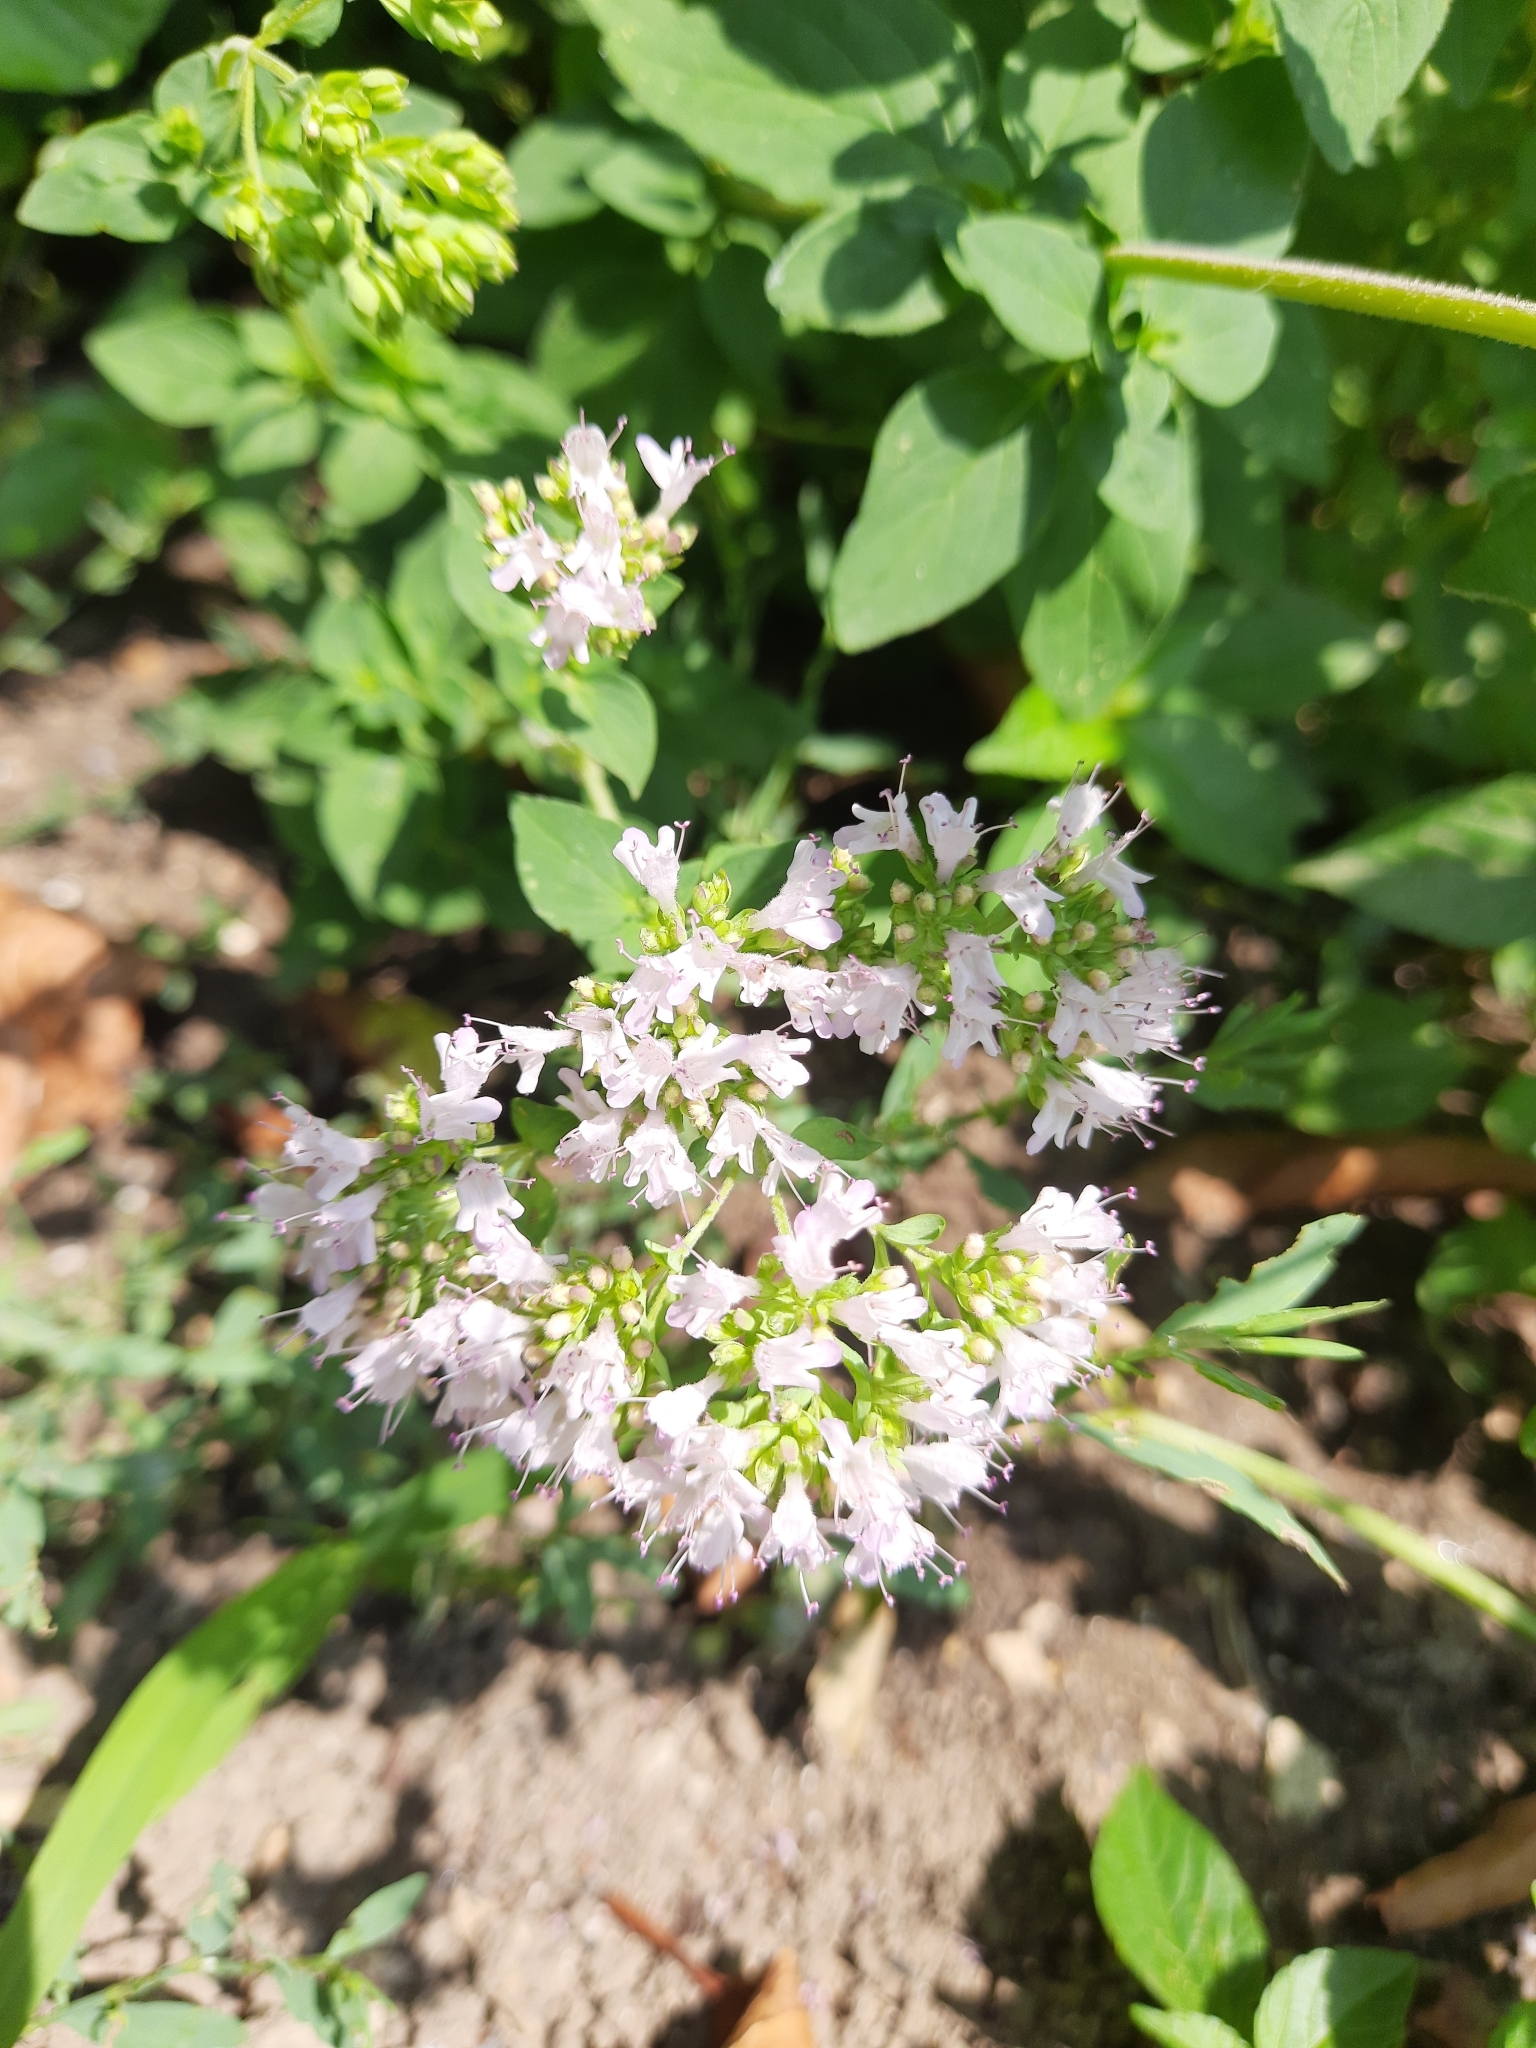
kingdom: Plantae
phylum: Tracheophyta
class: Magnoliopsida
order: Lamiales
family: Lamiaceae
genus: Origanum
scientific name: Origanum vulgare
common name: Wild marjoram
